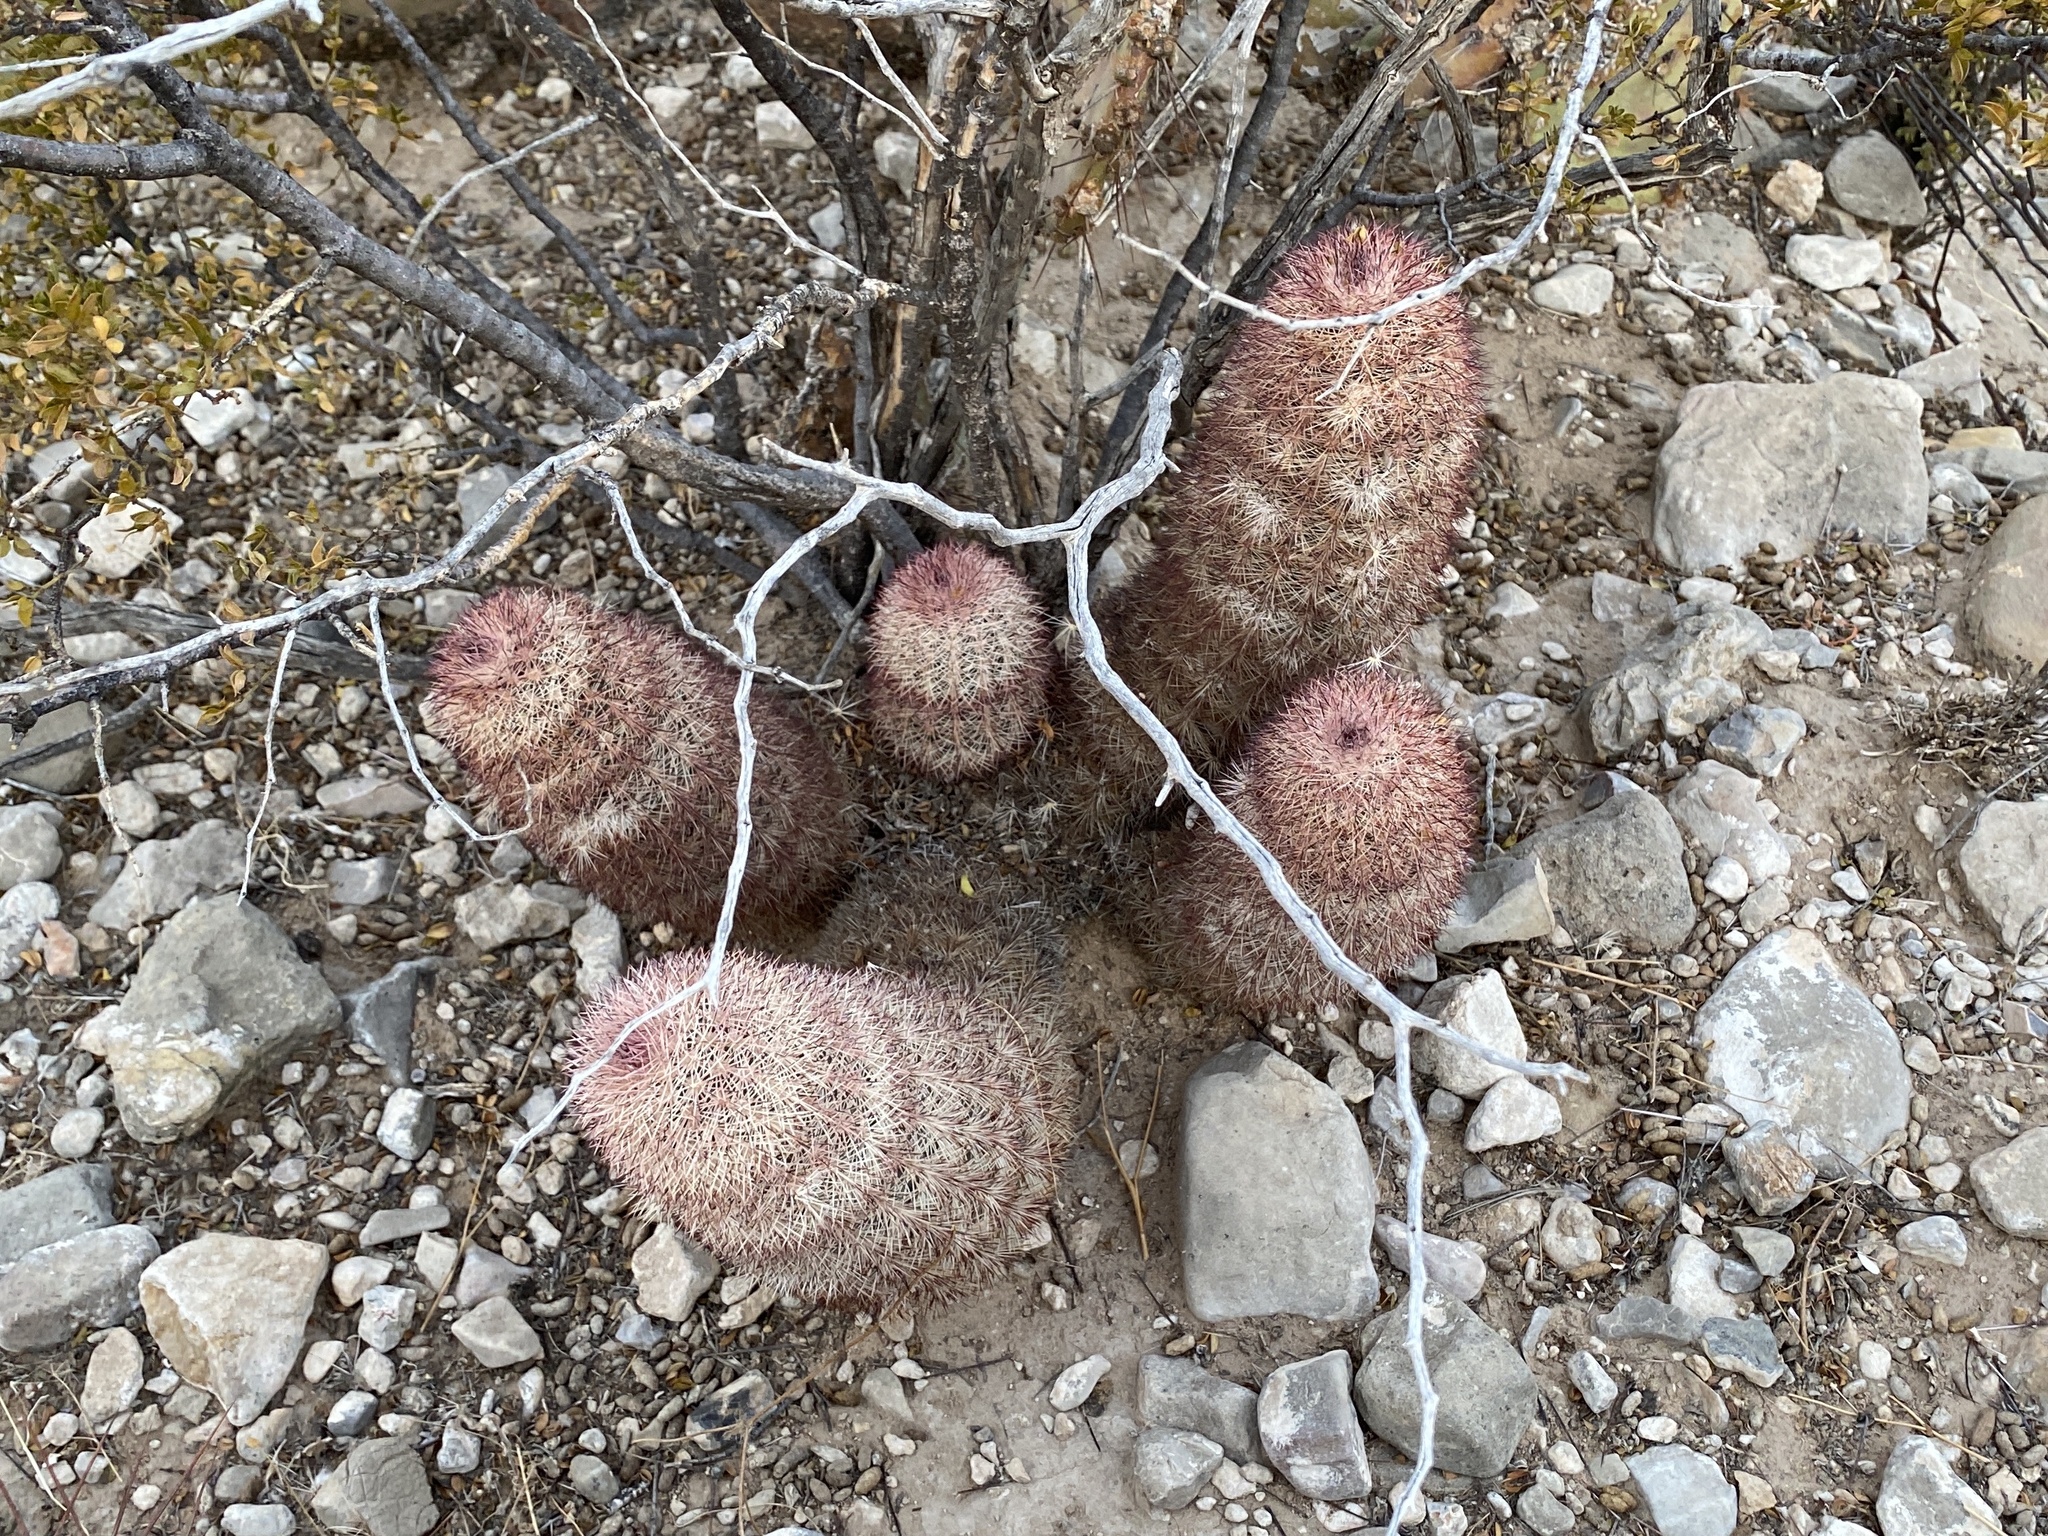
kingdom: Plantae
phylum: Tracheophyta
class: Magnoliopsida
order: Caryophyllales
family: Cactaceae
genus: Echinocereus
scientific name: Echinocereus dasyacanthus
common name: Spiny hedgehog cactus
